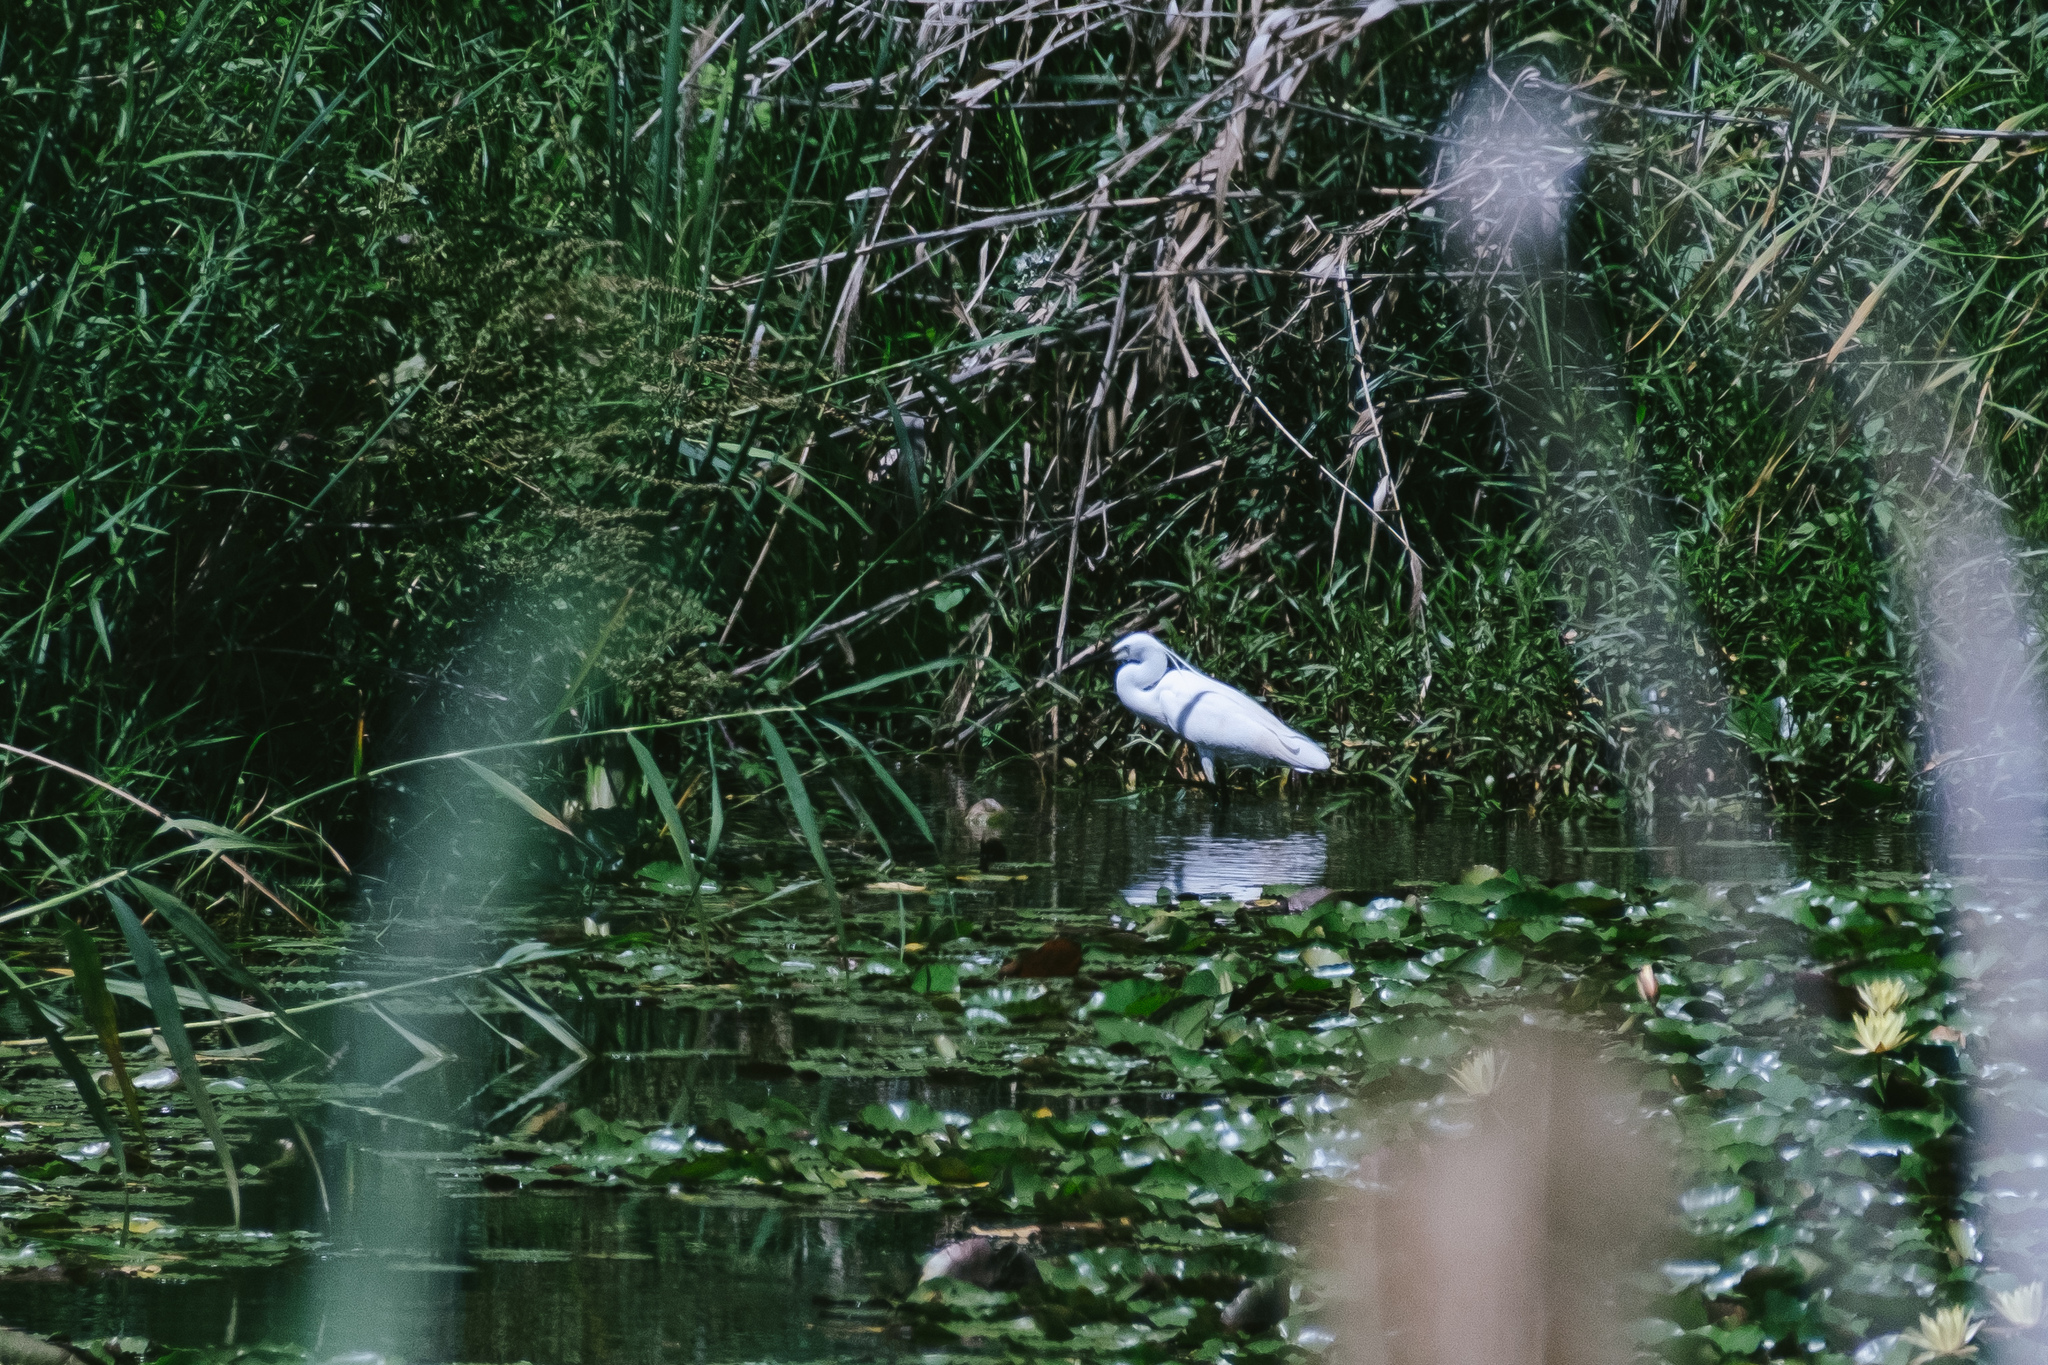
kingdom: Animalia
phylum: Chordata
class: Aves
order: Pelecaniformes
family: Ardeidae
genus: Egretta
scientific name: Egretta garzetta
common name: Little egret
